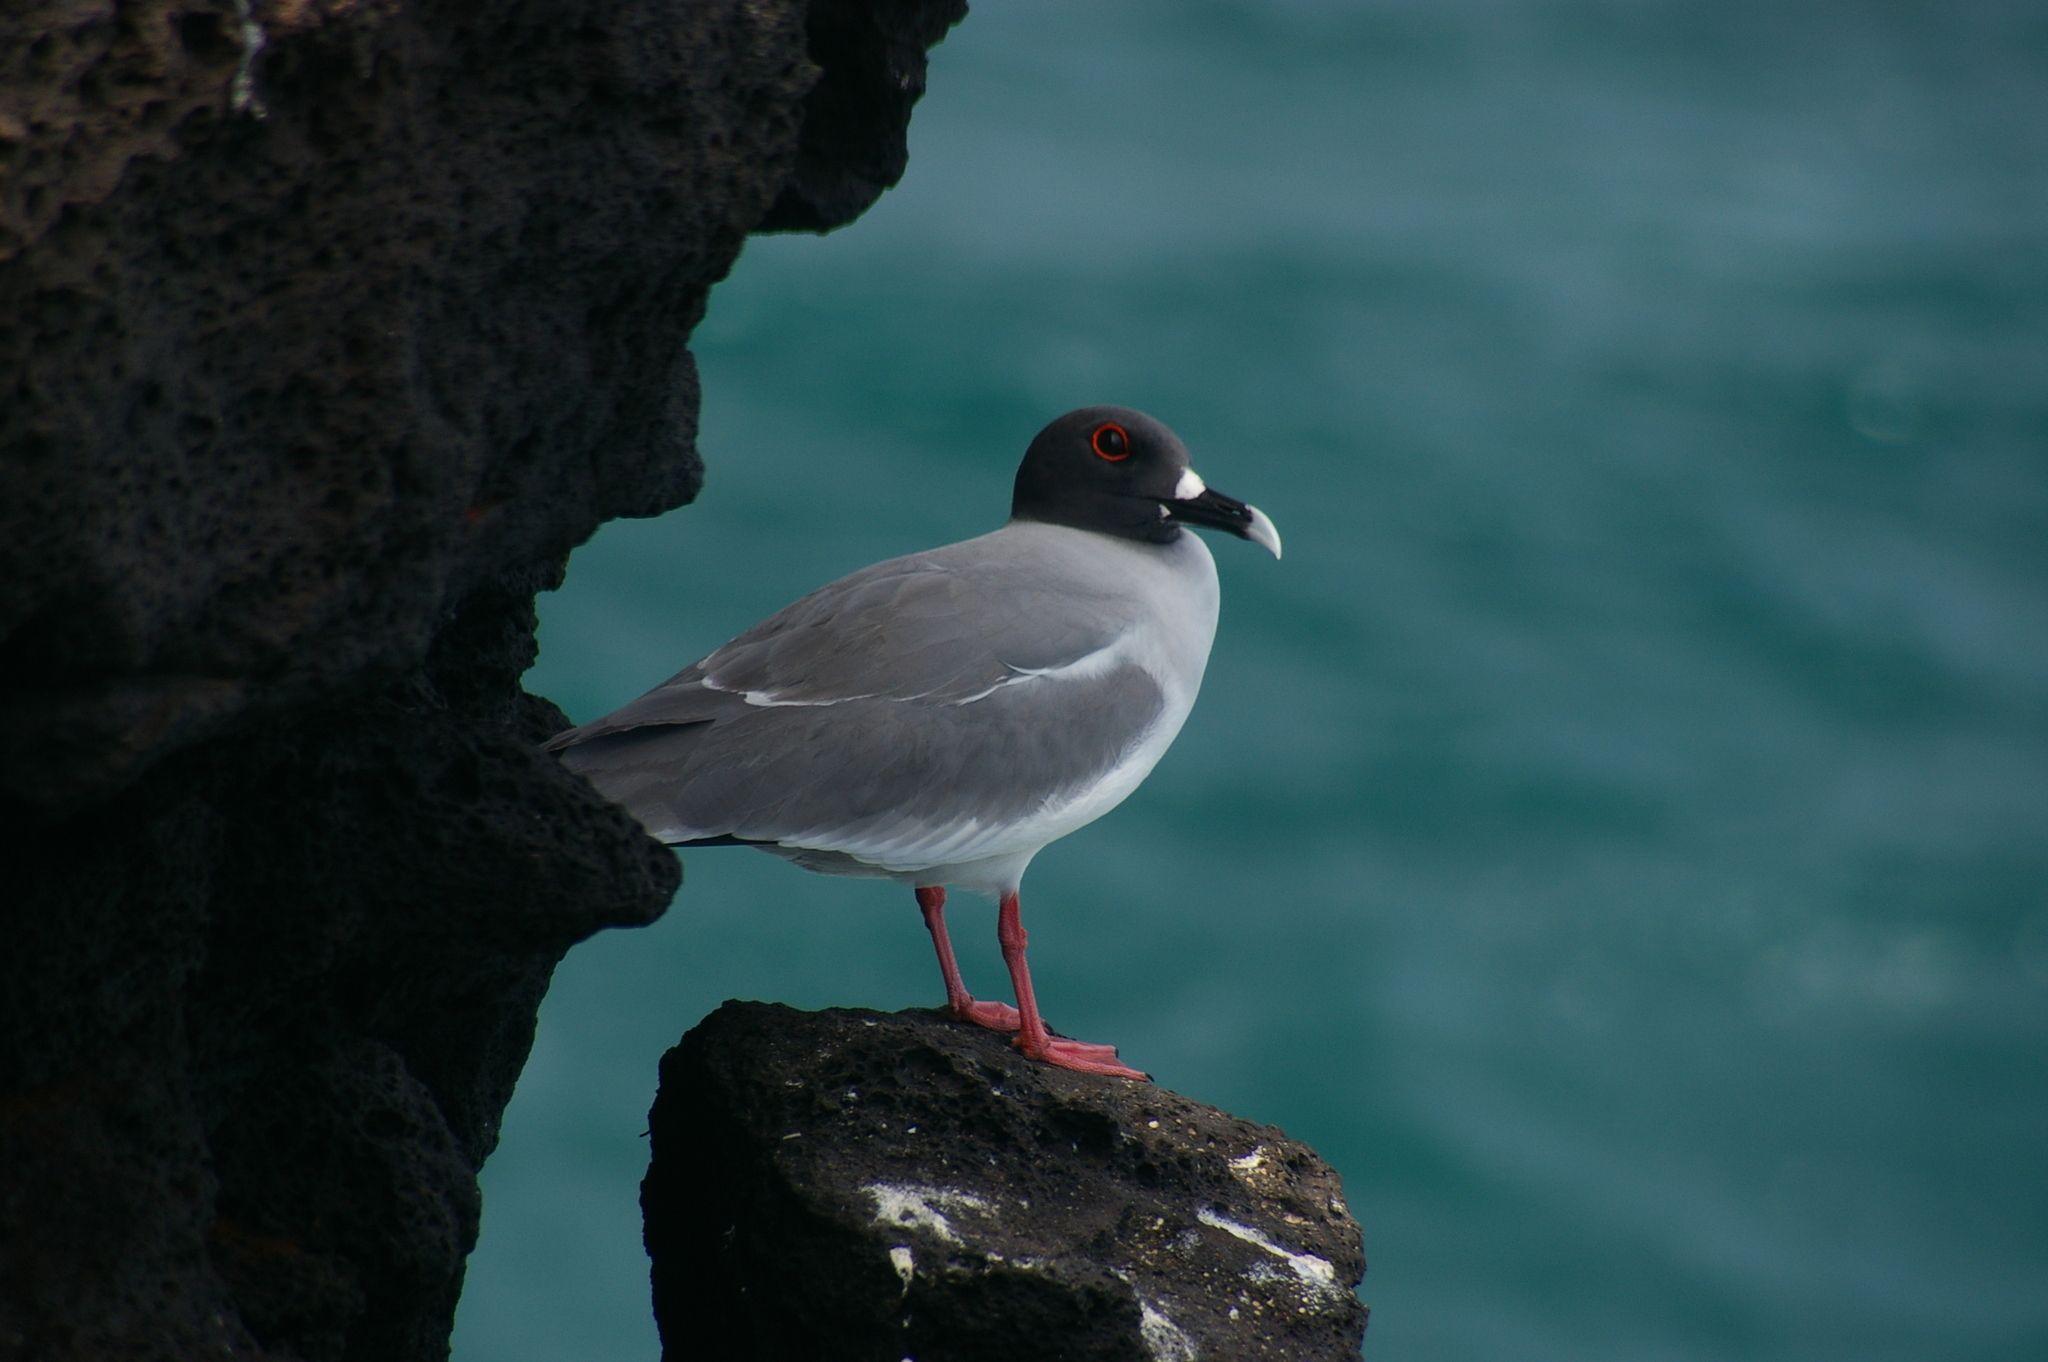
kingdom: Animalia
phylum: Chordata
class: Aves
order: Charadriiformes
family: Laridae
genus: Creagrus
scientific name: Creagrus furcatus
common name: Swallow-tailed gull
